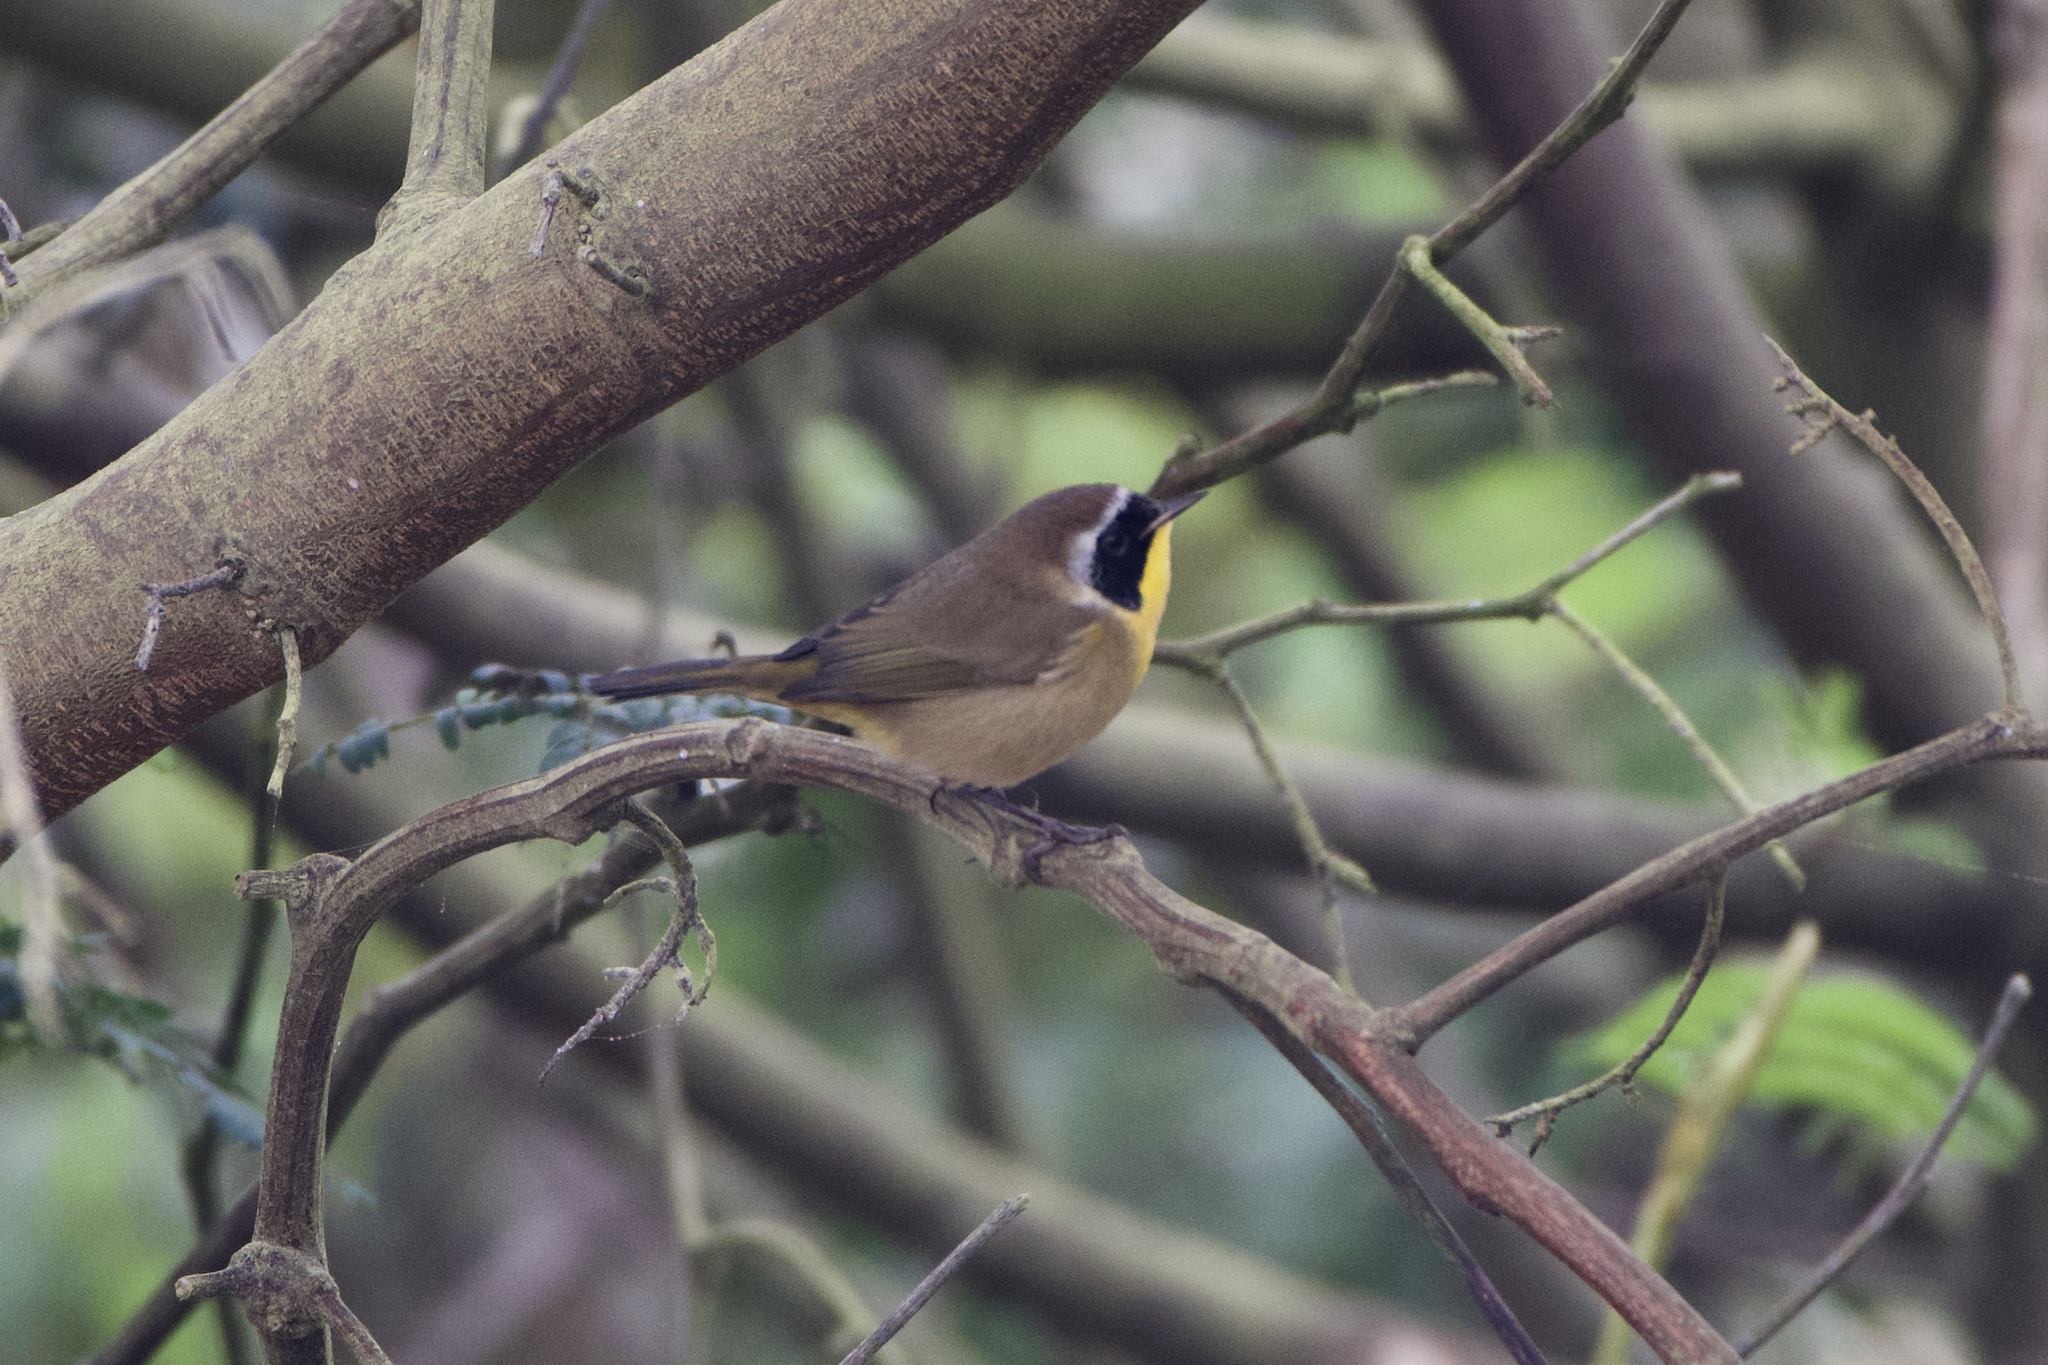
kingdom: Animalia
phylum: Chordata
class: Aves
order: Passeriformes
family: Parulidae
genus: Geothlypis
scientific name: Geothlypis trichas
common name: Common yellowthroat
